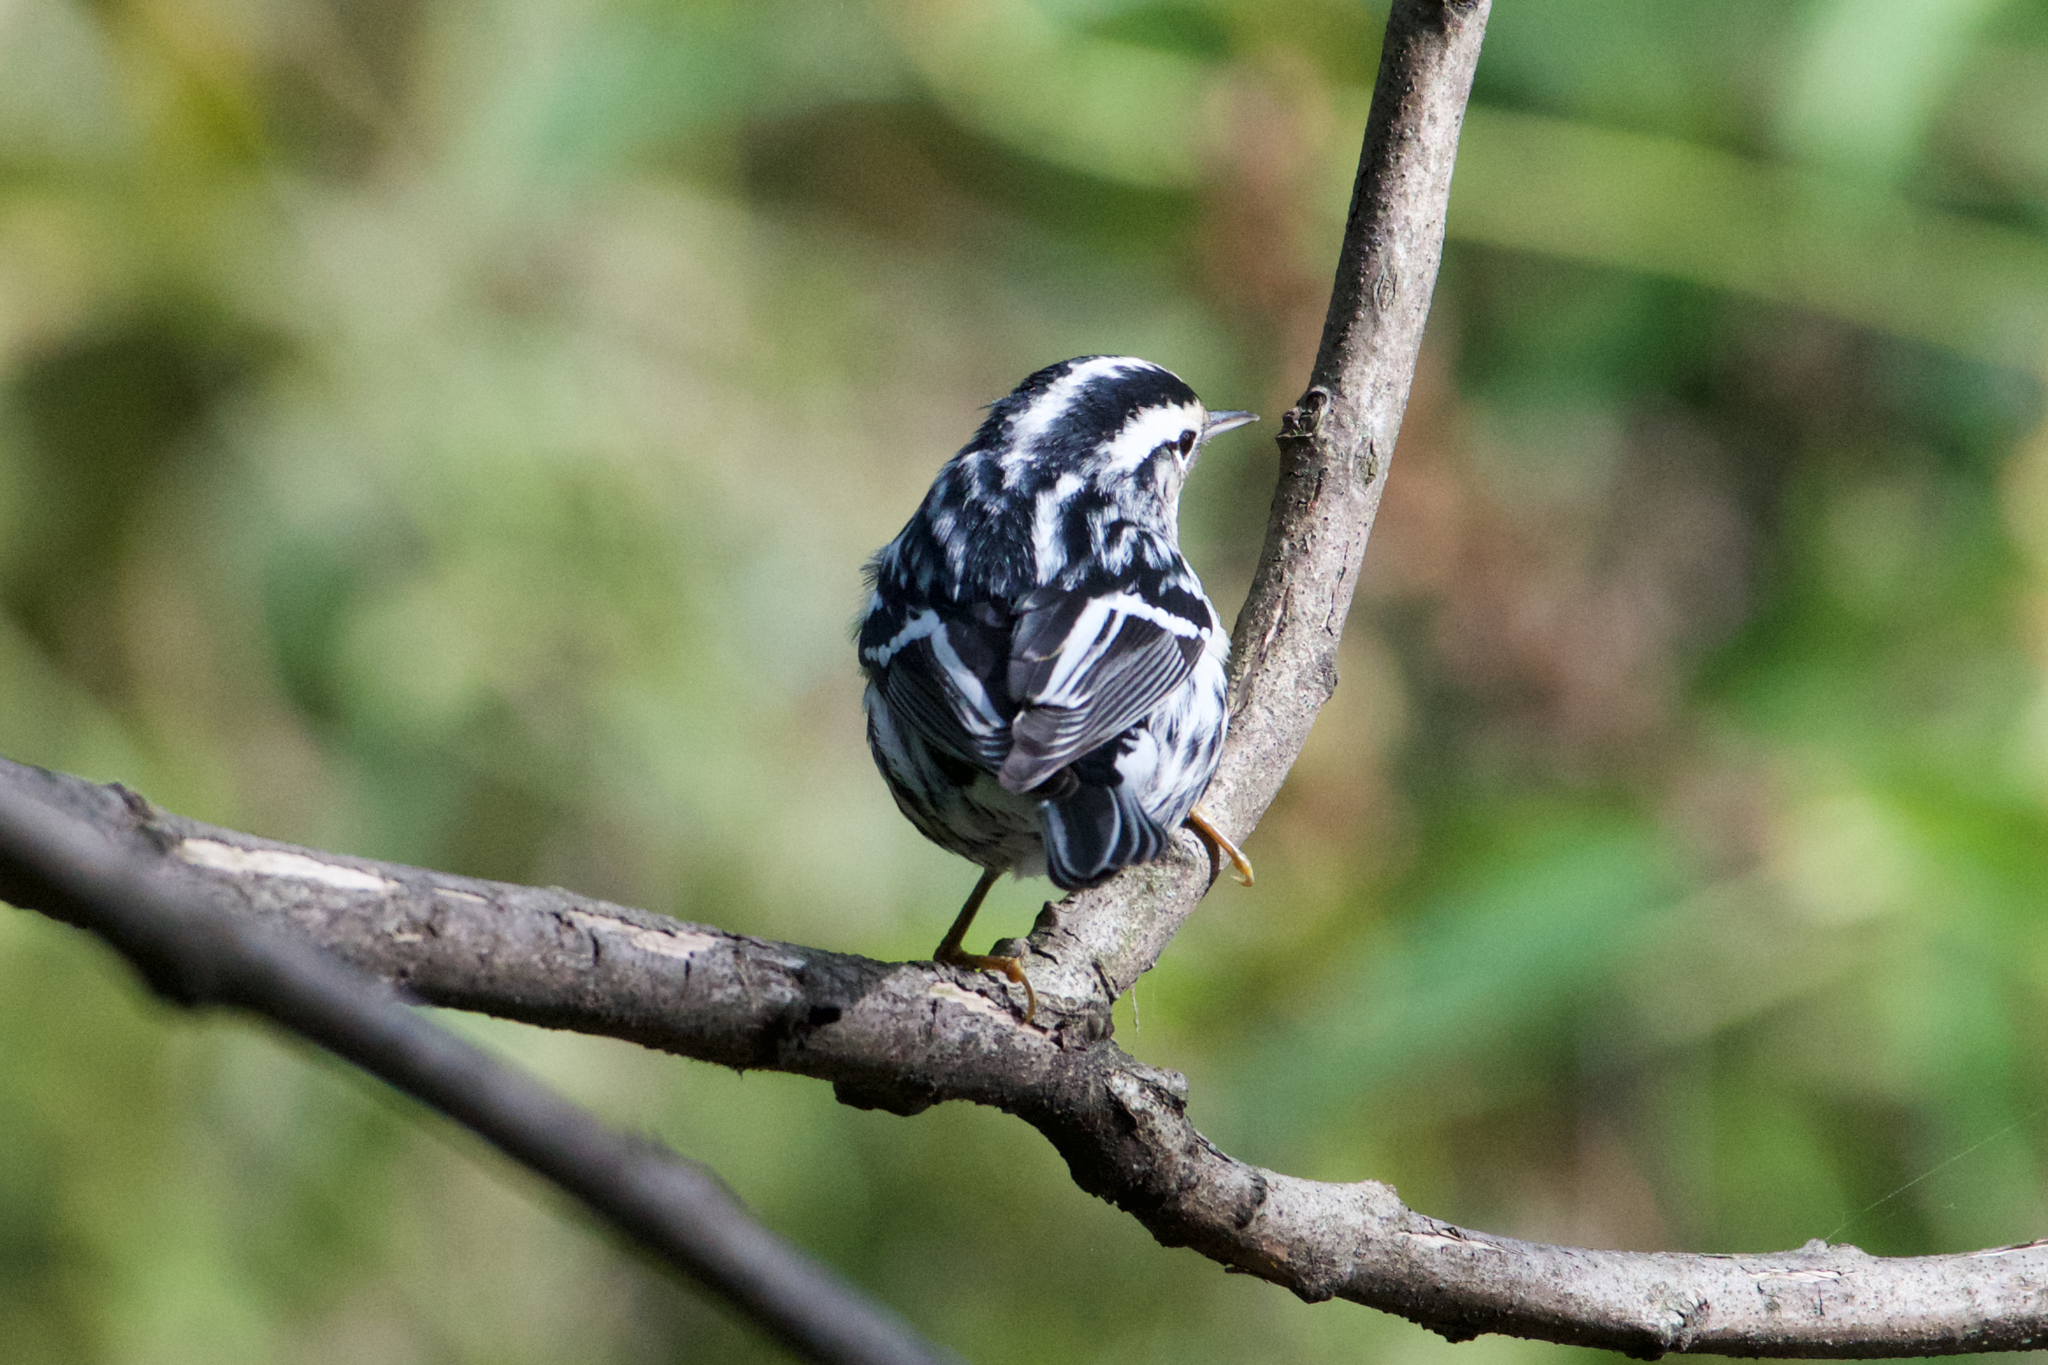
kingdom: Animalia
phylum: Chordata
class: Aves
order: Passeriformes
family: Parulidae
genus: Mniotilta
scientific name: Mniotilta varia
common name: Black-and-white warbler
